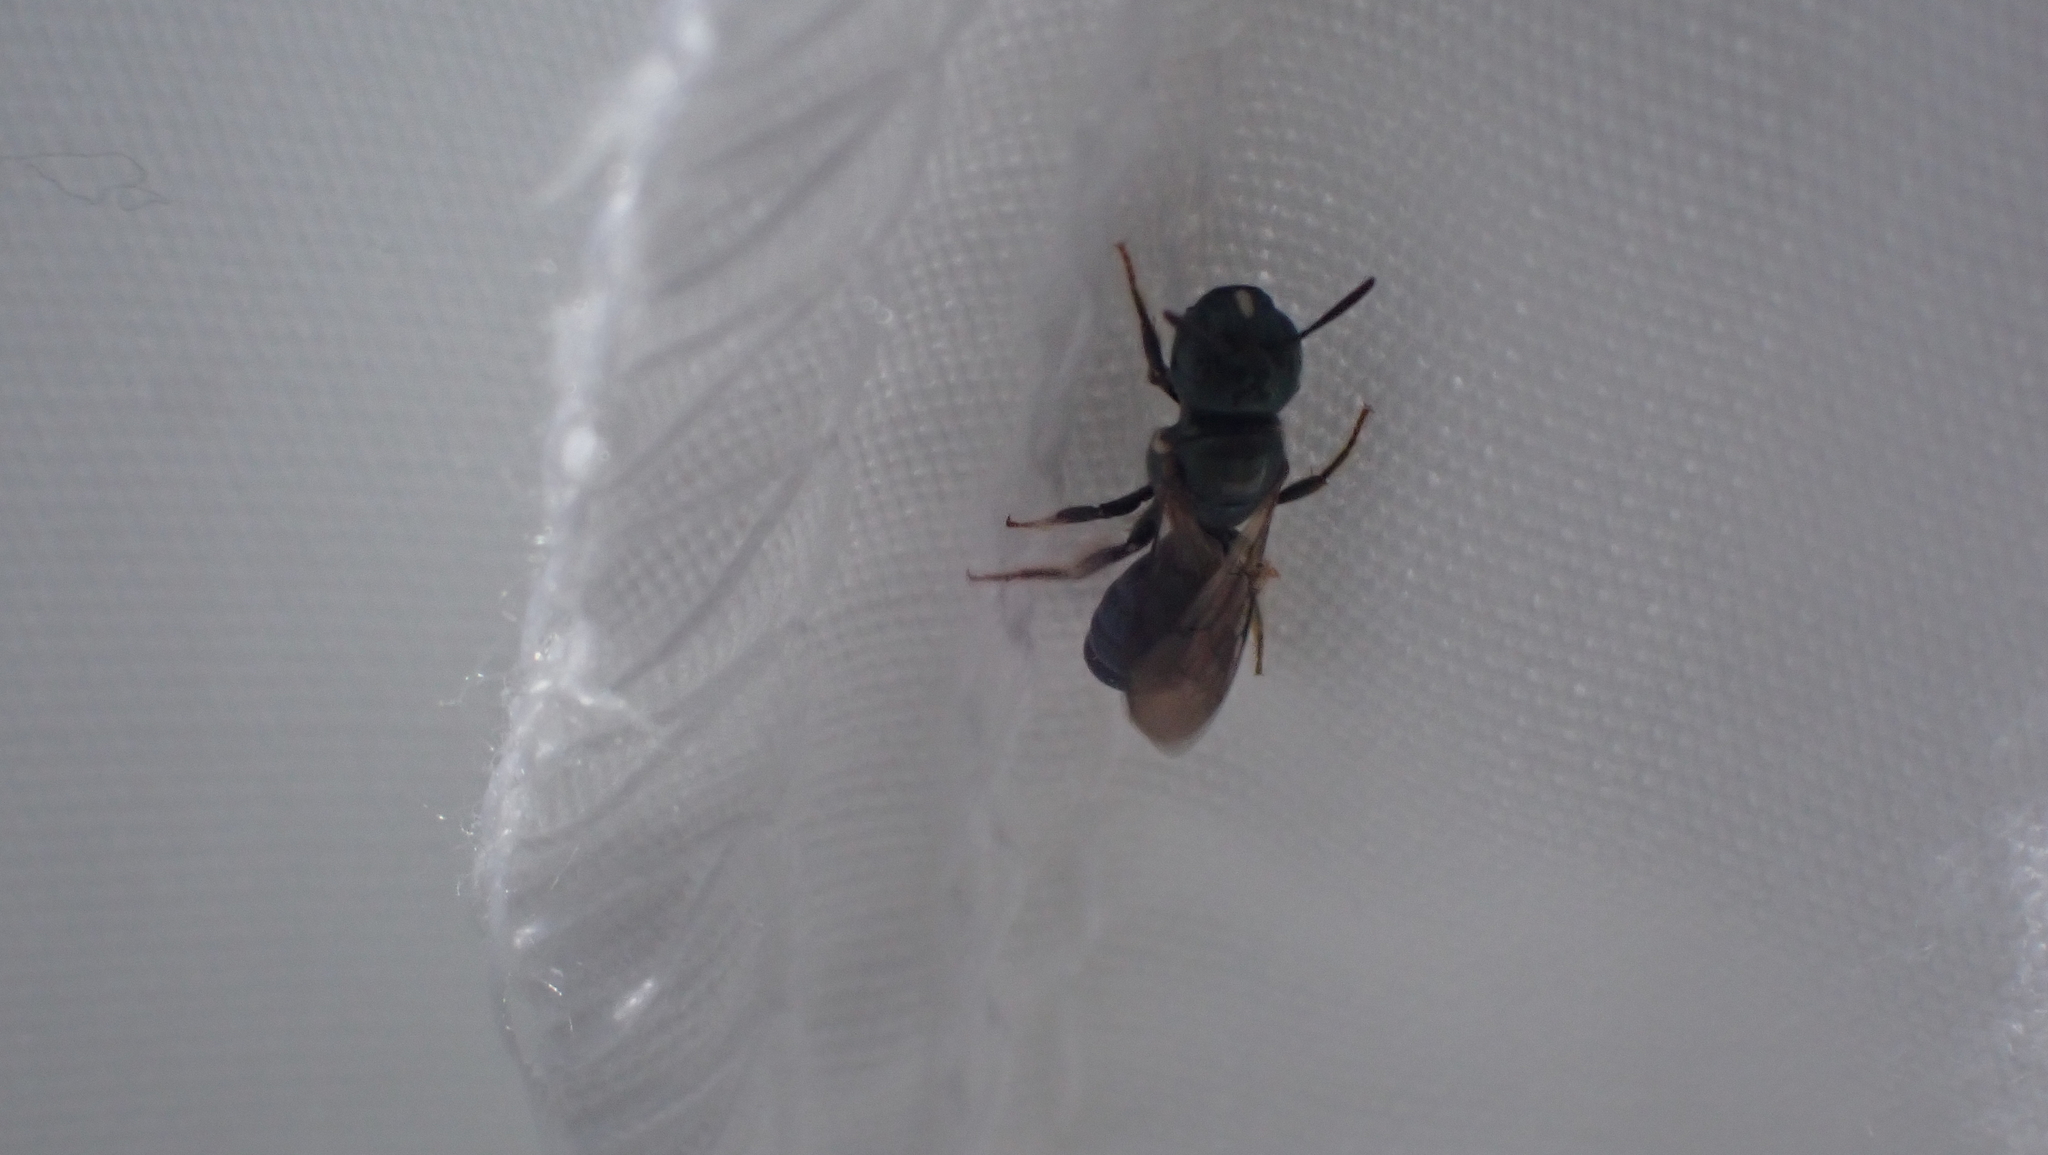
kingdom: Animalia
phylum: Arthropoda
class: Insecta
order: Hymenoptera
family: Apidae
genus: Ceratina
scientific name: Ceratina strenua
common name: Nimble carpenter bee
